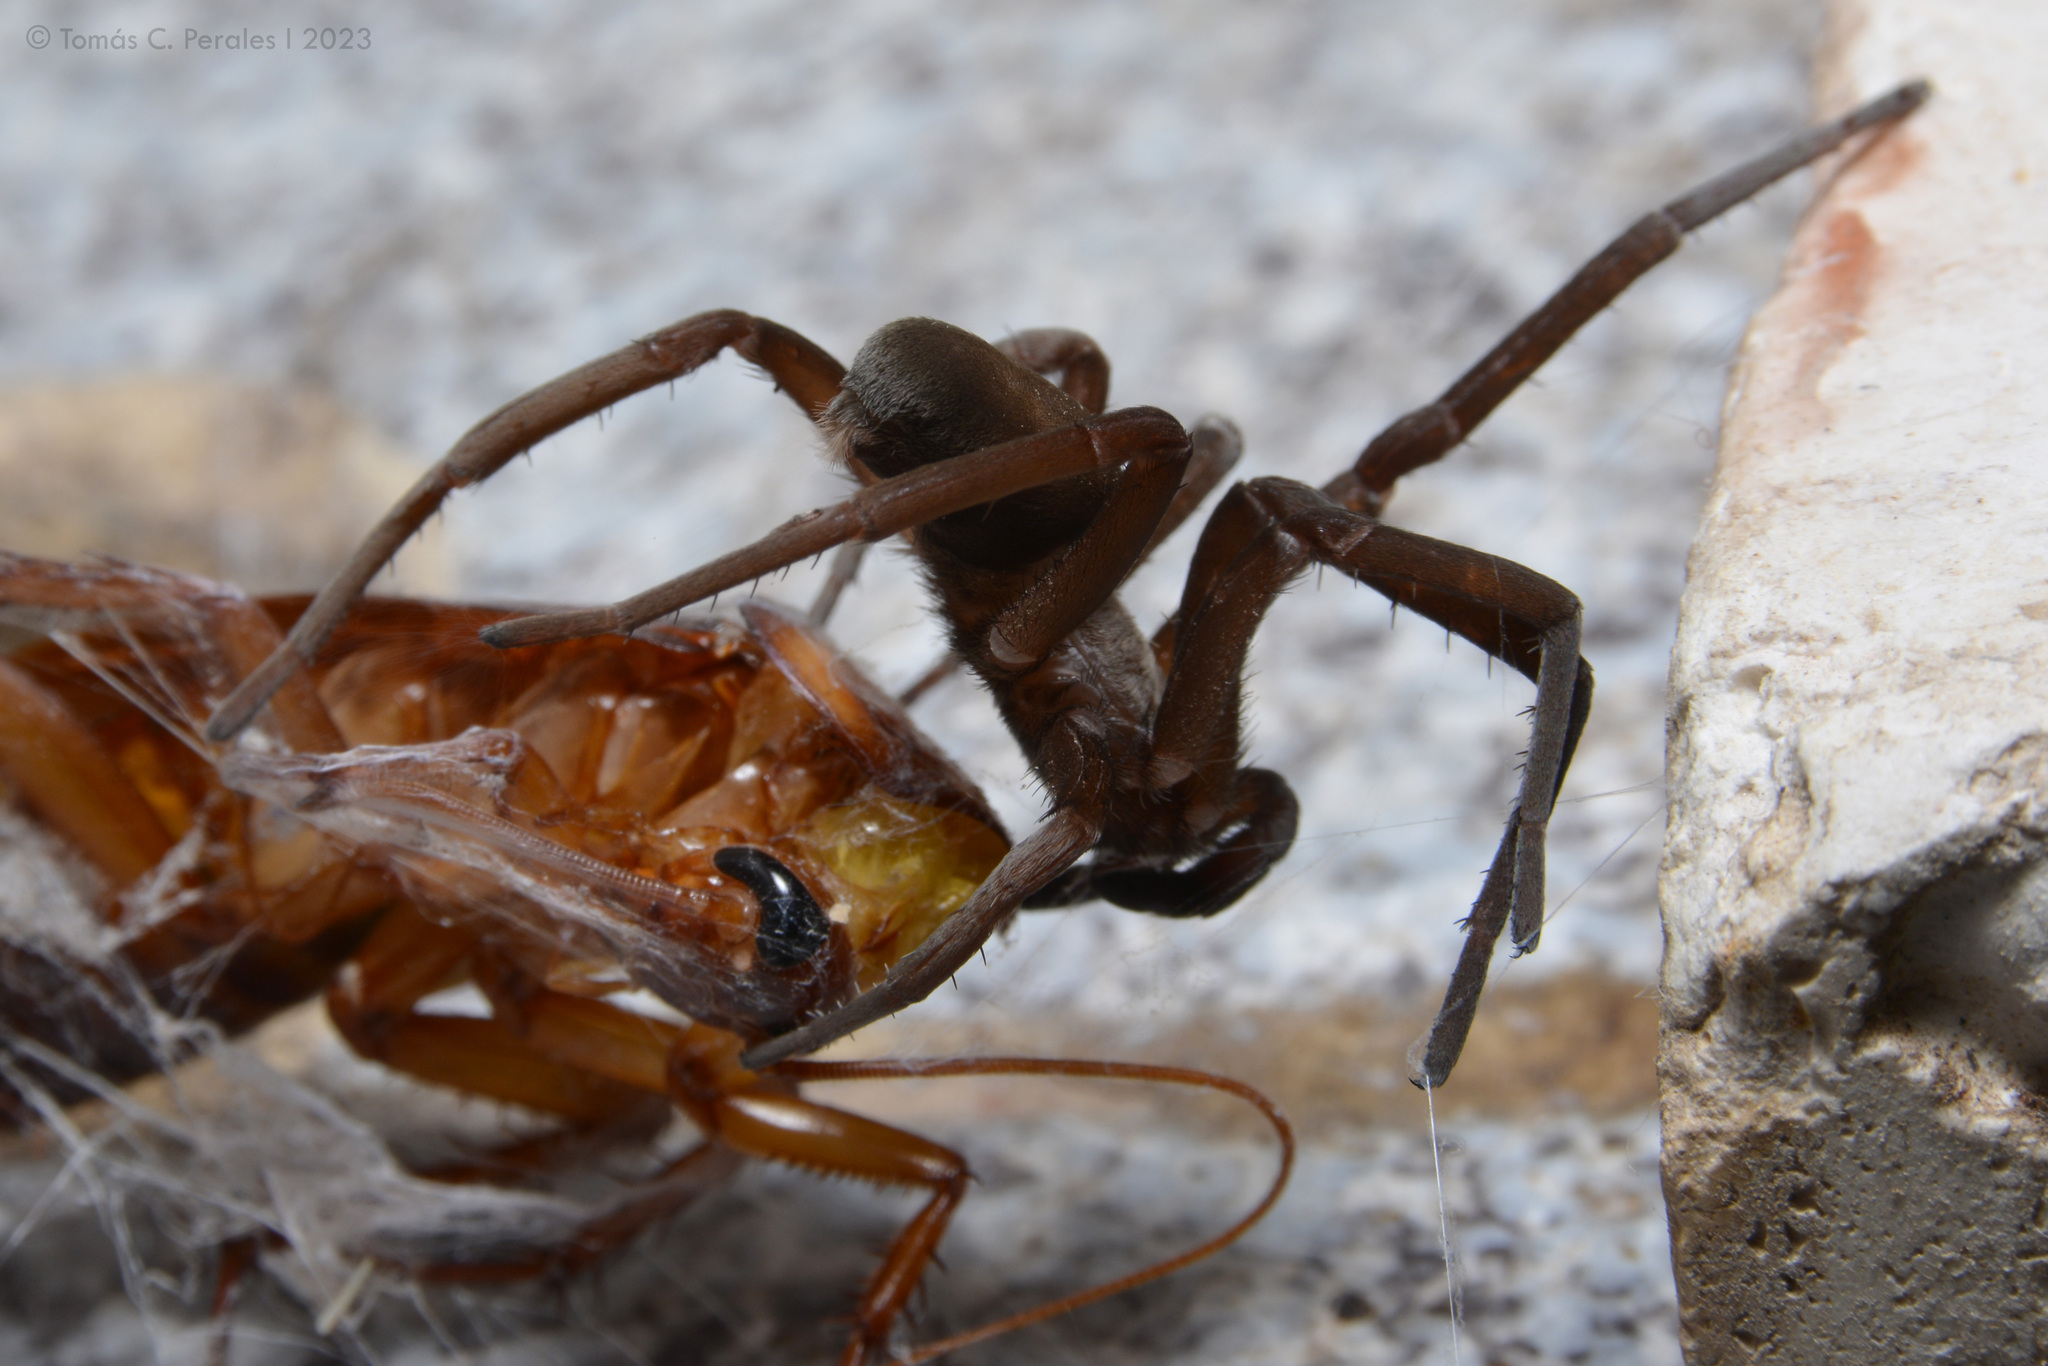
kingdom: Animalia
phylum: Arthropoda
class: Arachnida
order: Araneae
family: Filistatidae
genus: Kukulcania
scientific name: Kukulcania hibernalis
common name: Crevice weaver
